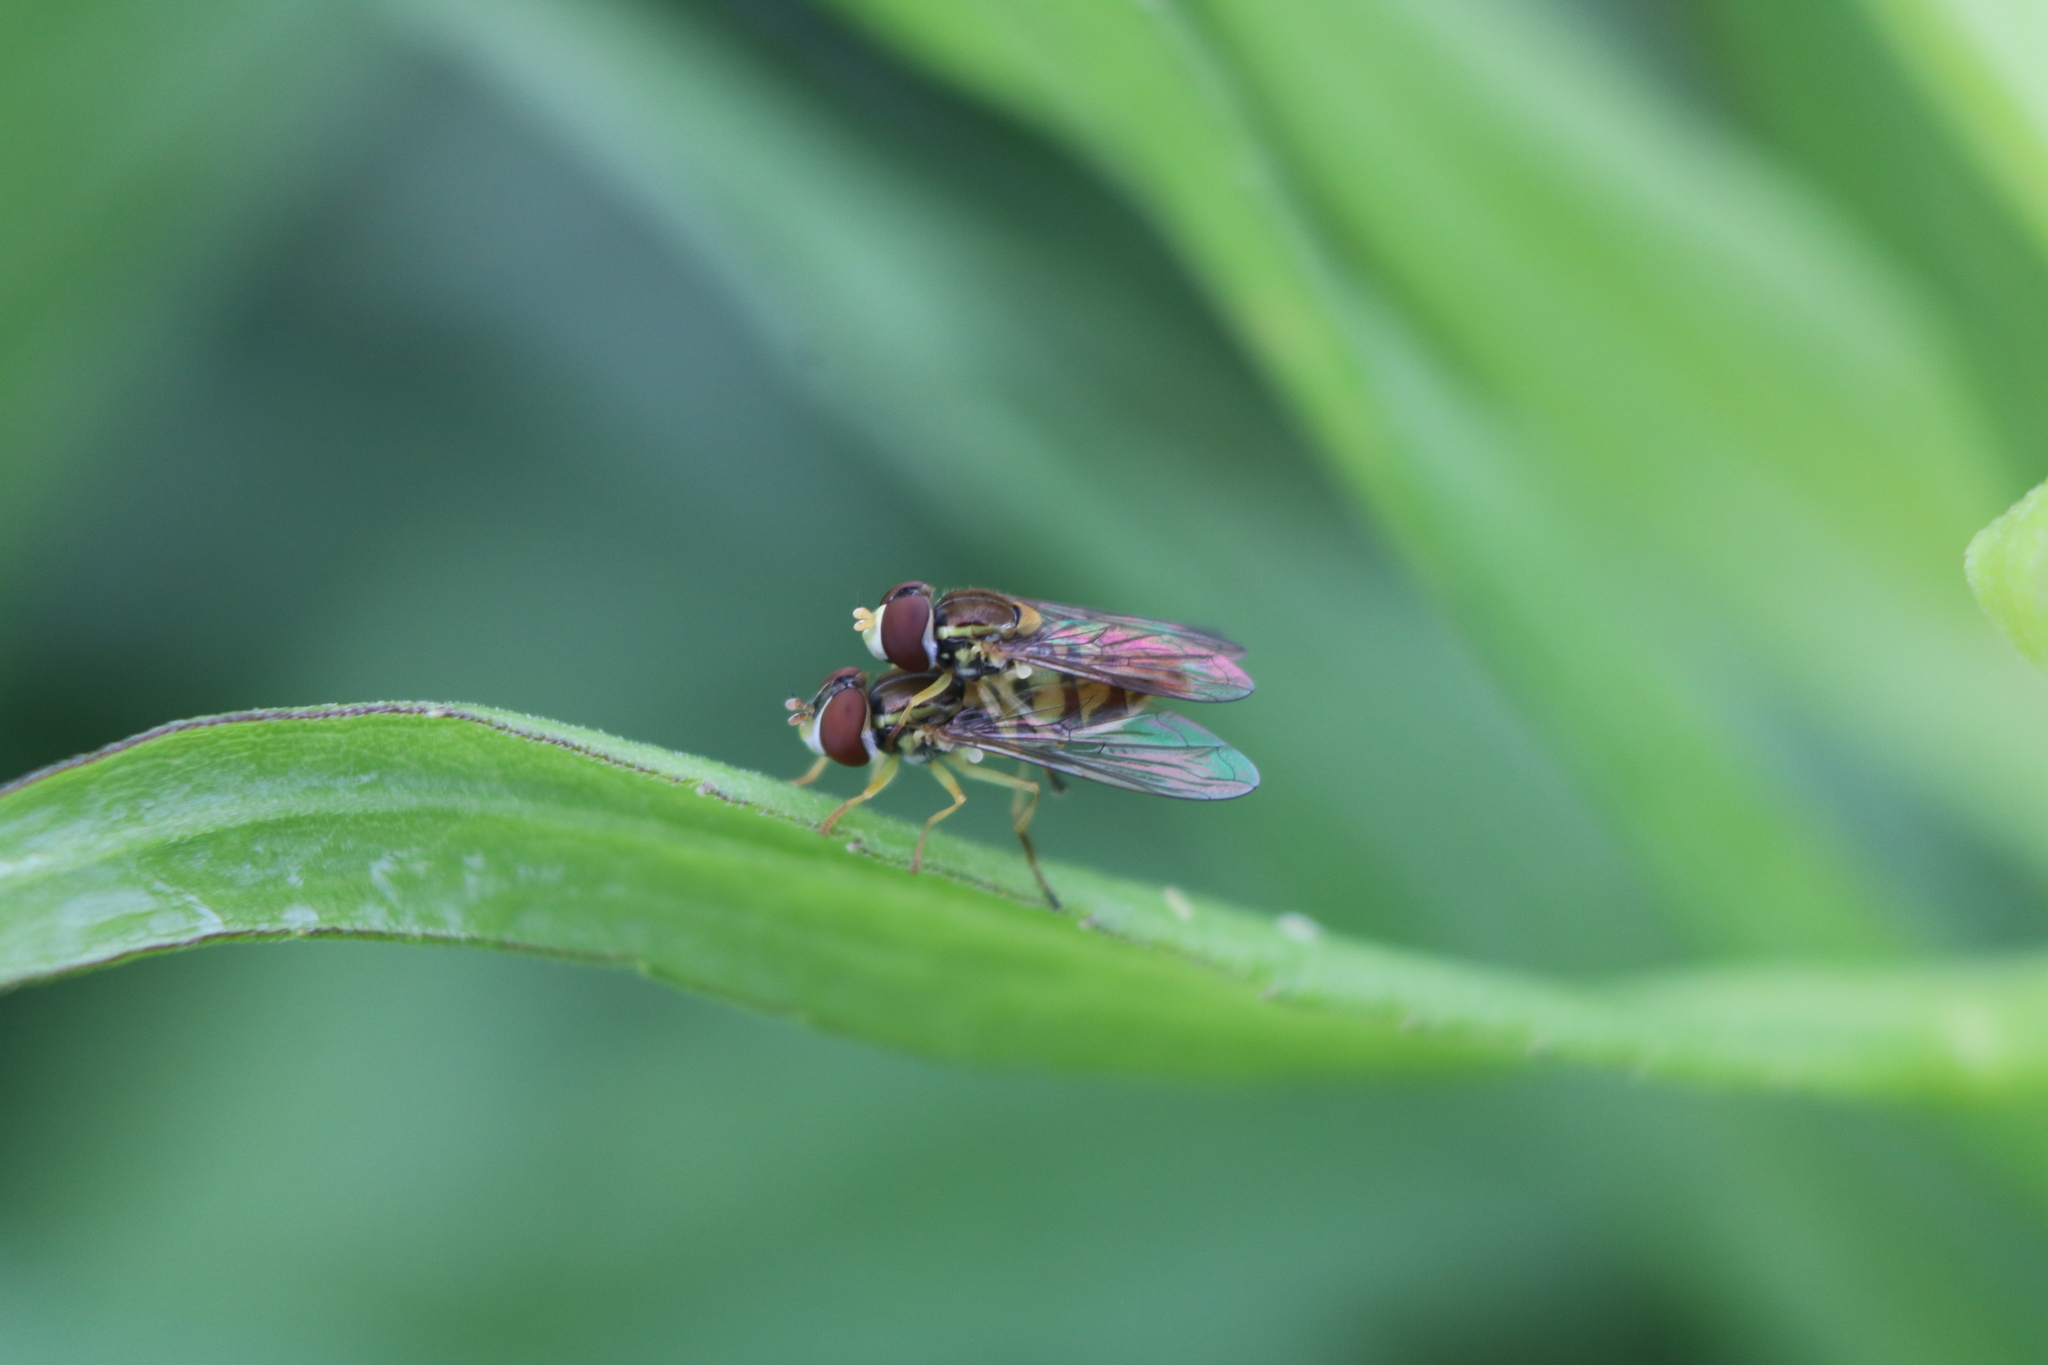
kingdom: Animalia
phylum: Arthropoda
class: Insecta
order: Diptera
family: Syrphidae
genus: Toxomerus
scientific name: Toxomerus marginatus
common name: Syrphid fly
